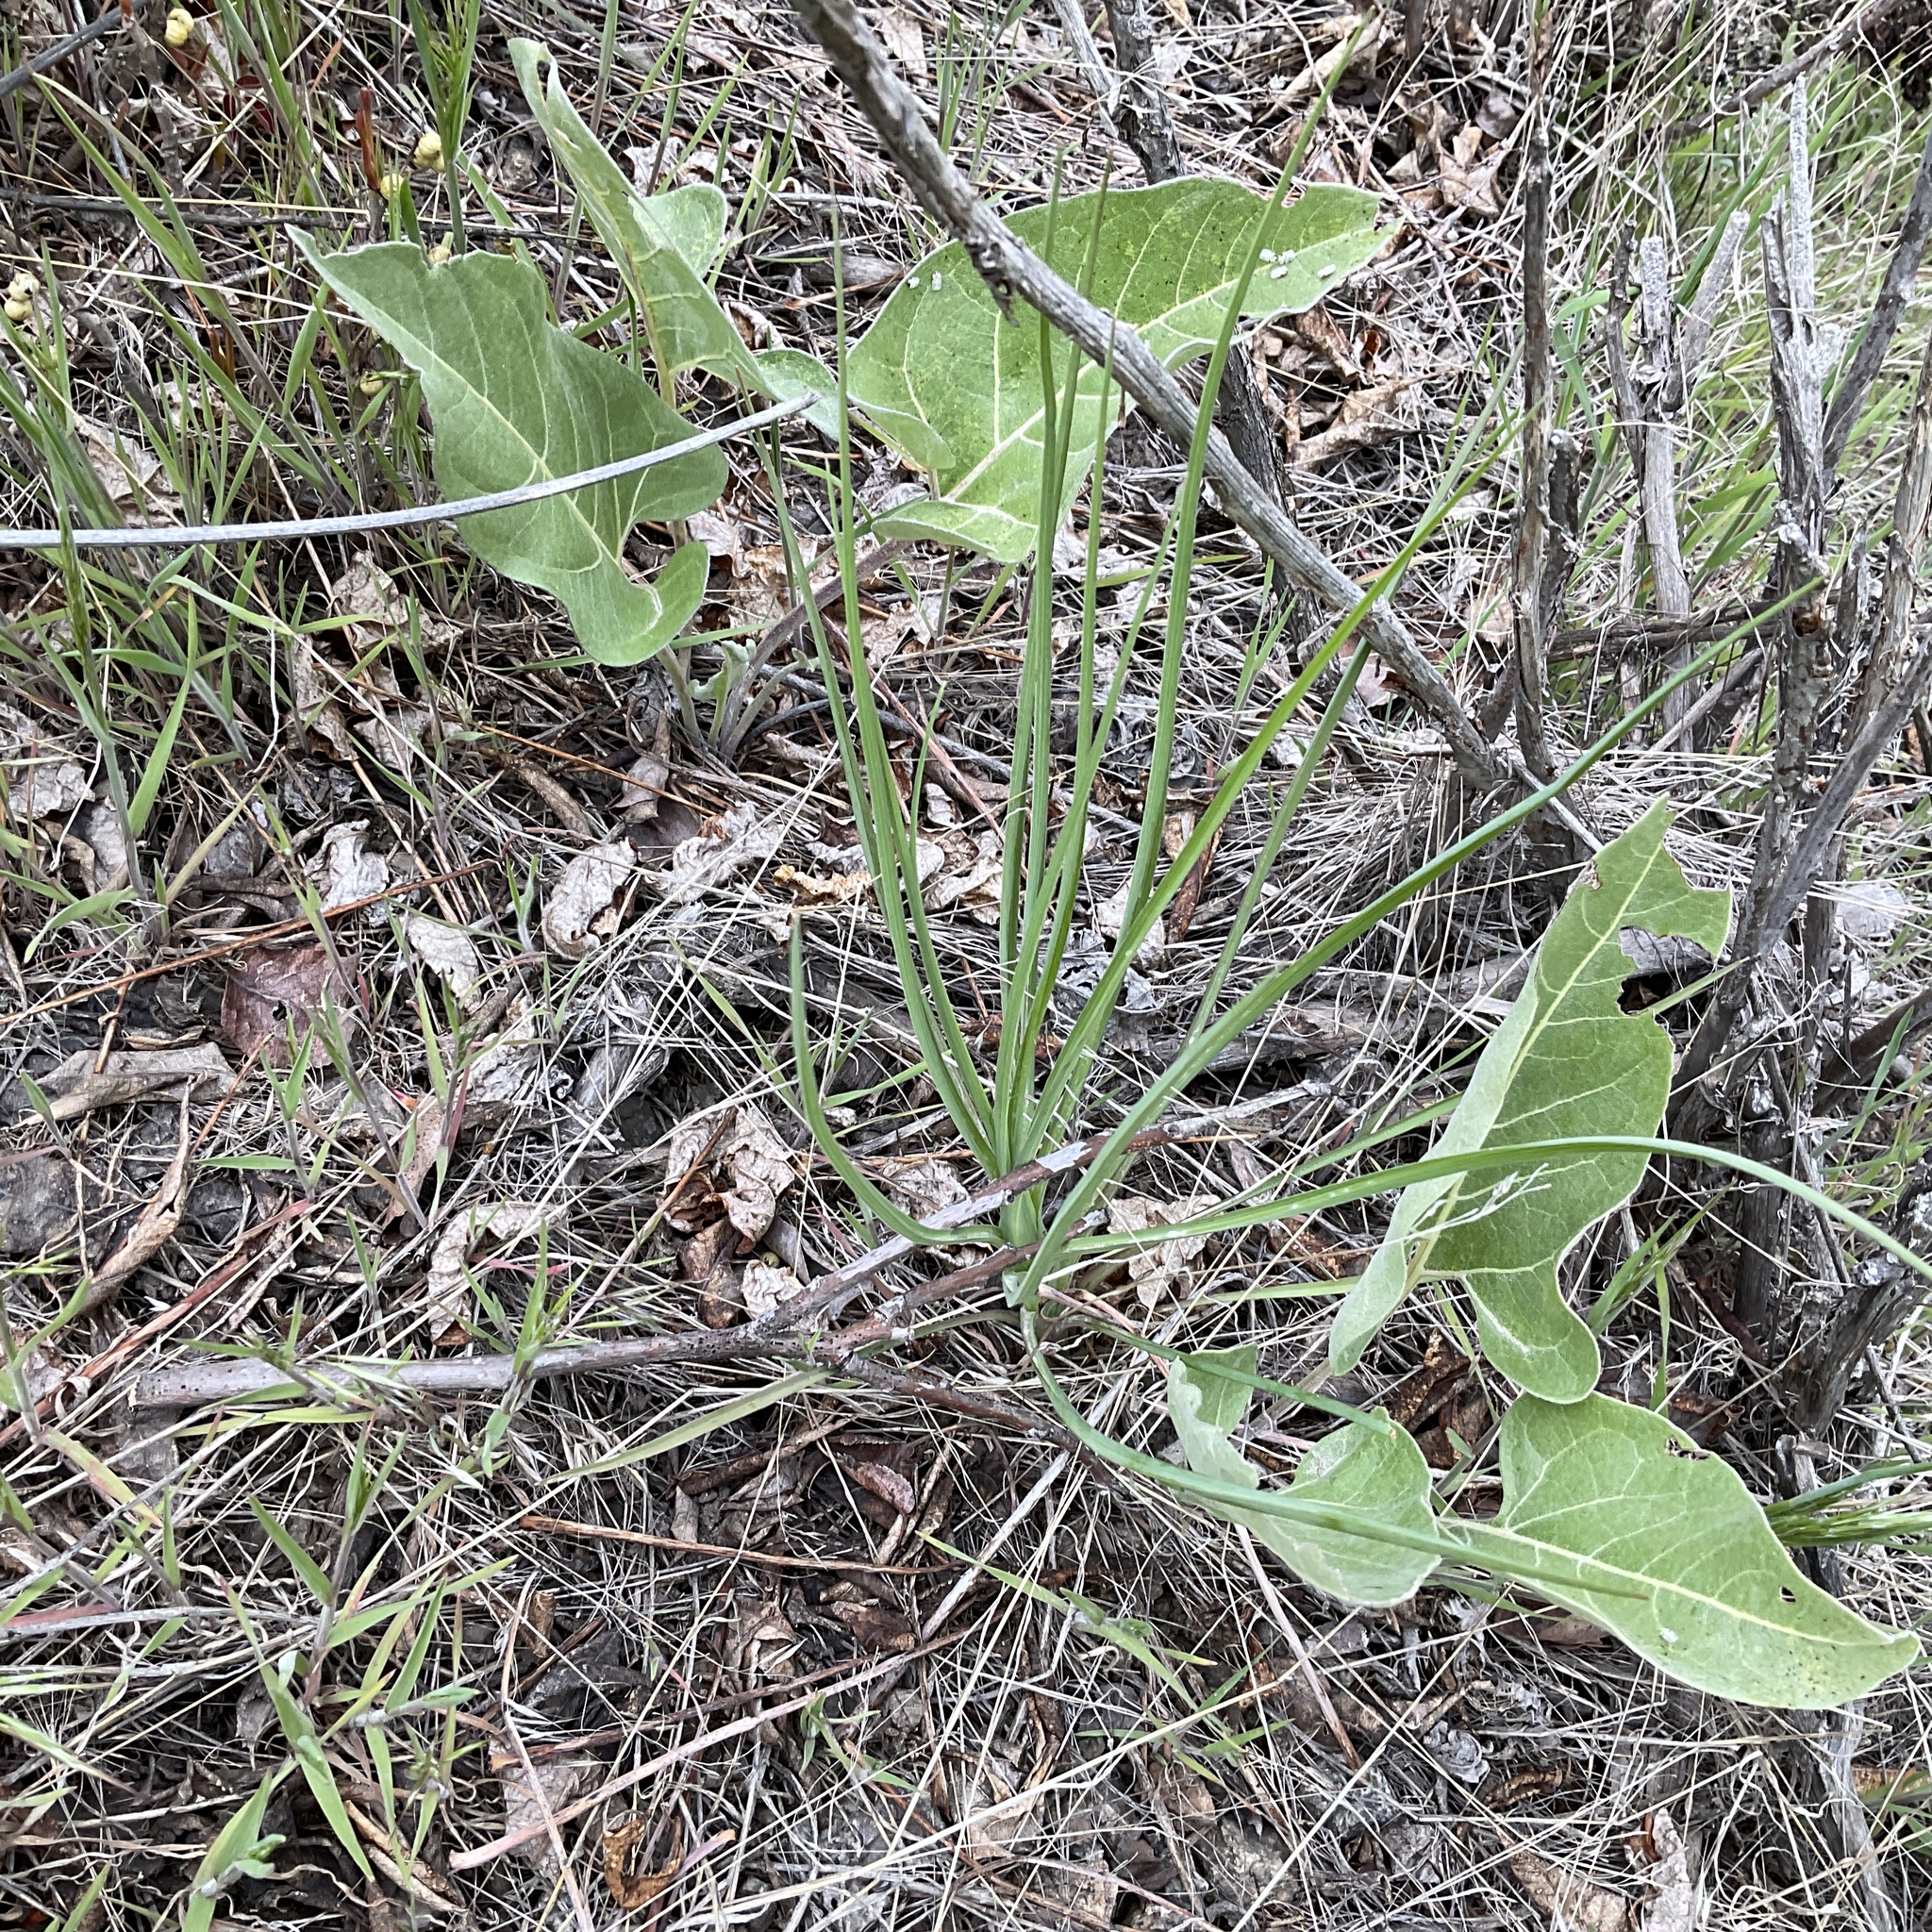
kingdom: Plantae
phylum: Tracheophyta
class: Magnoliopsida
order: Asterales
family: Asteraceae
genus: Wyethia
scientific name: Wyethia sagittata
